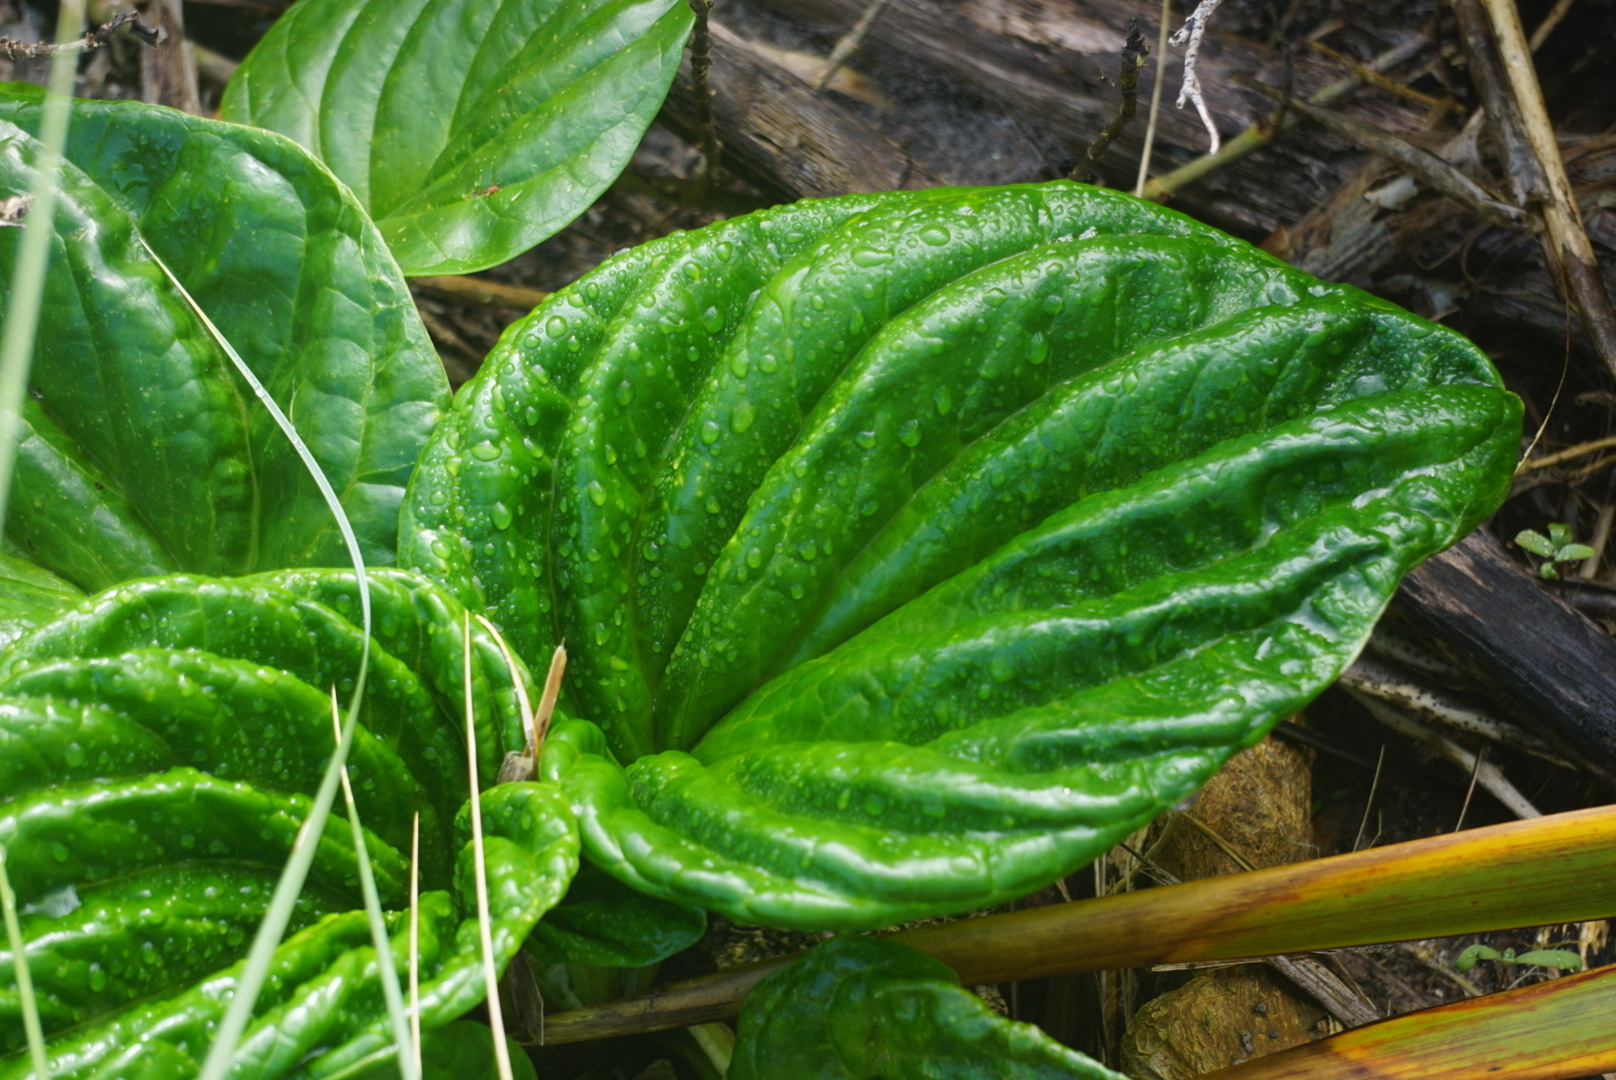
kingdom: Plantae
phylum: Tracheophyta
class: Magnoliopsida
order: Boraginales
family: Boraginaceae
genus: Myosotidium
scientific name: Myosotidium hortensia
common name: Giant forget-me-not
